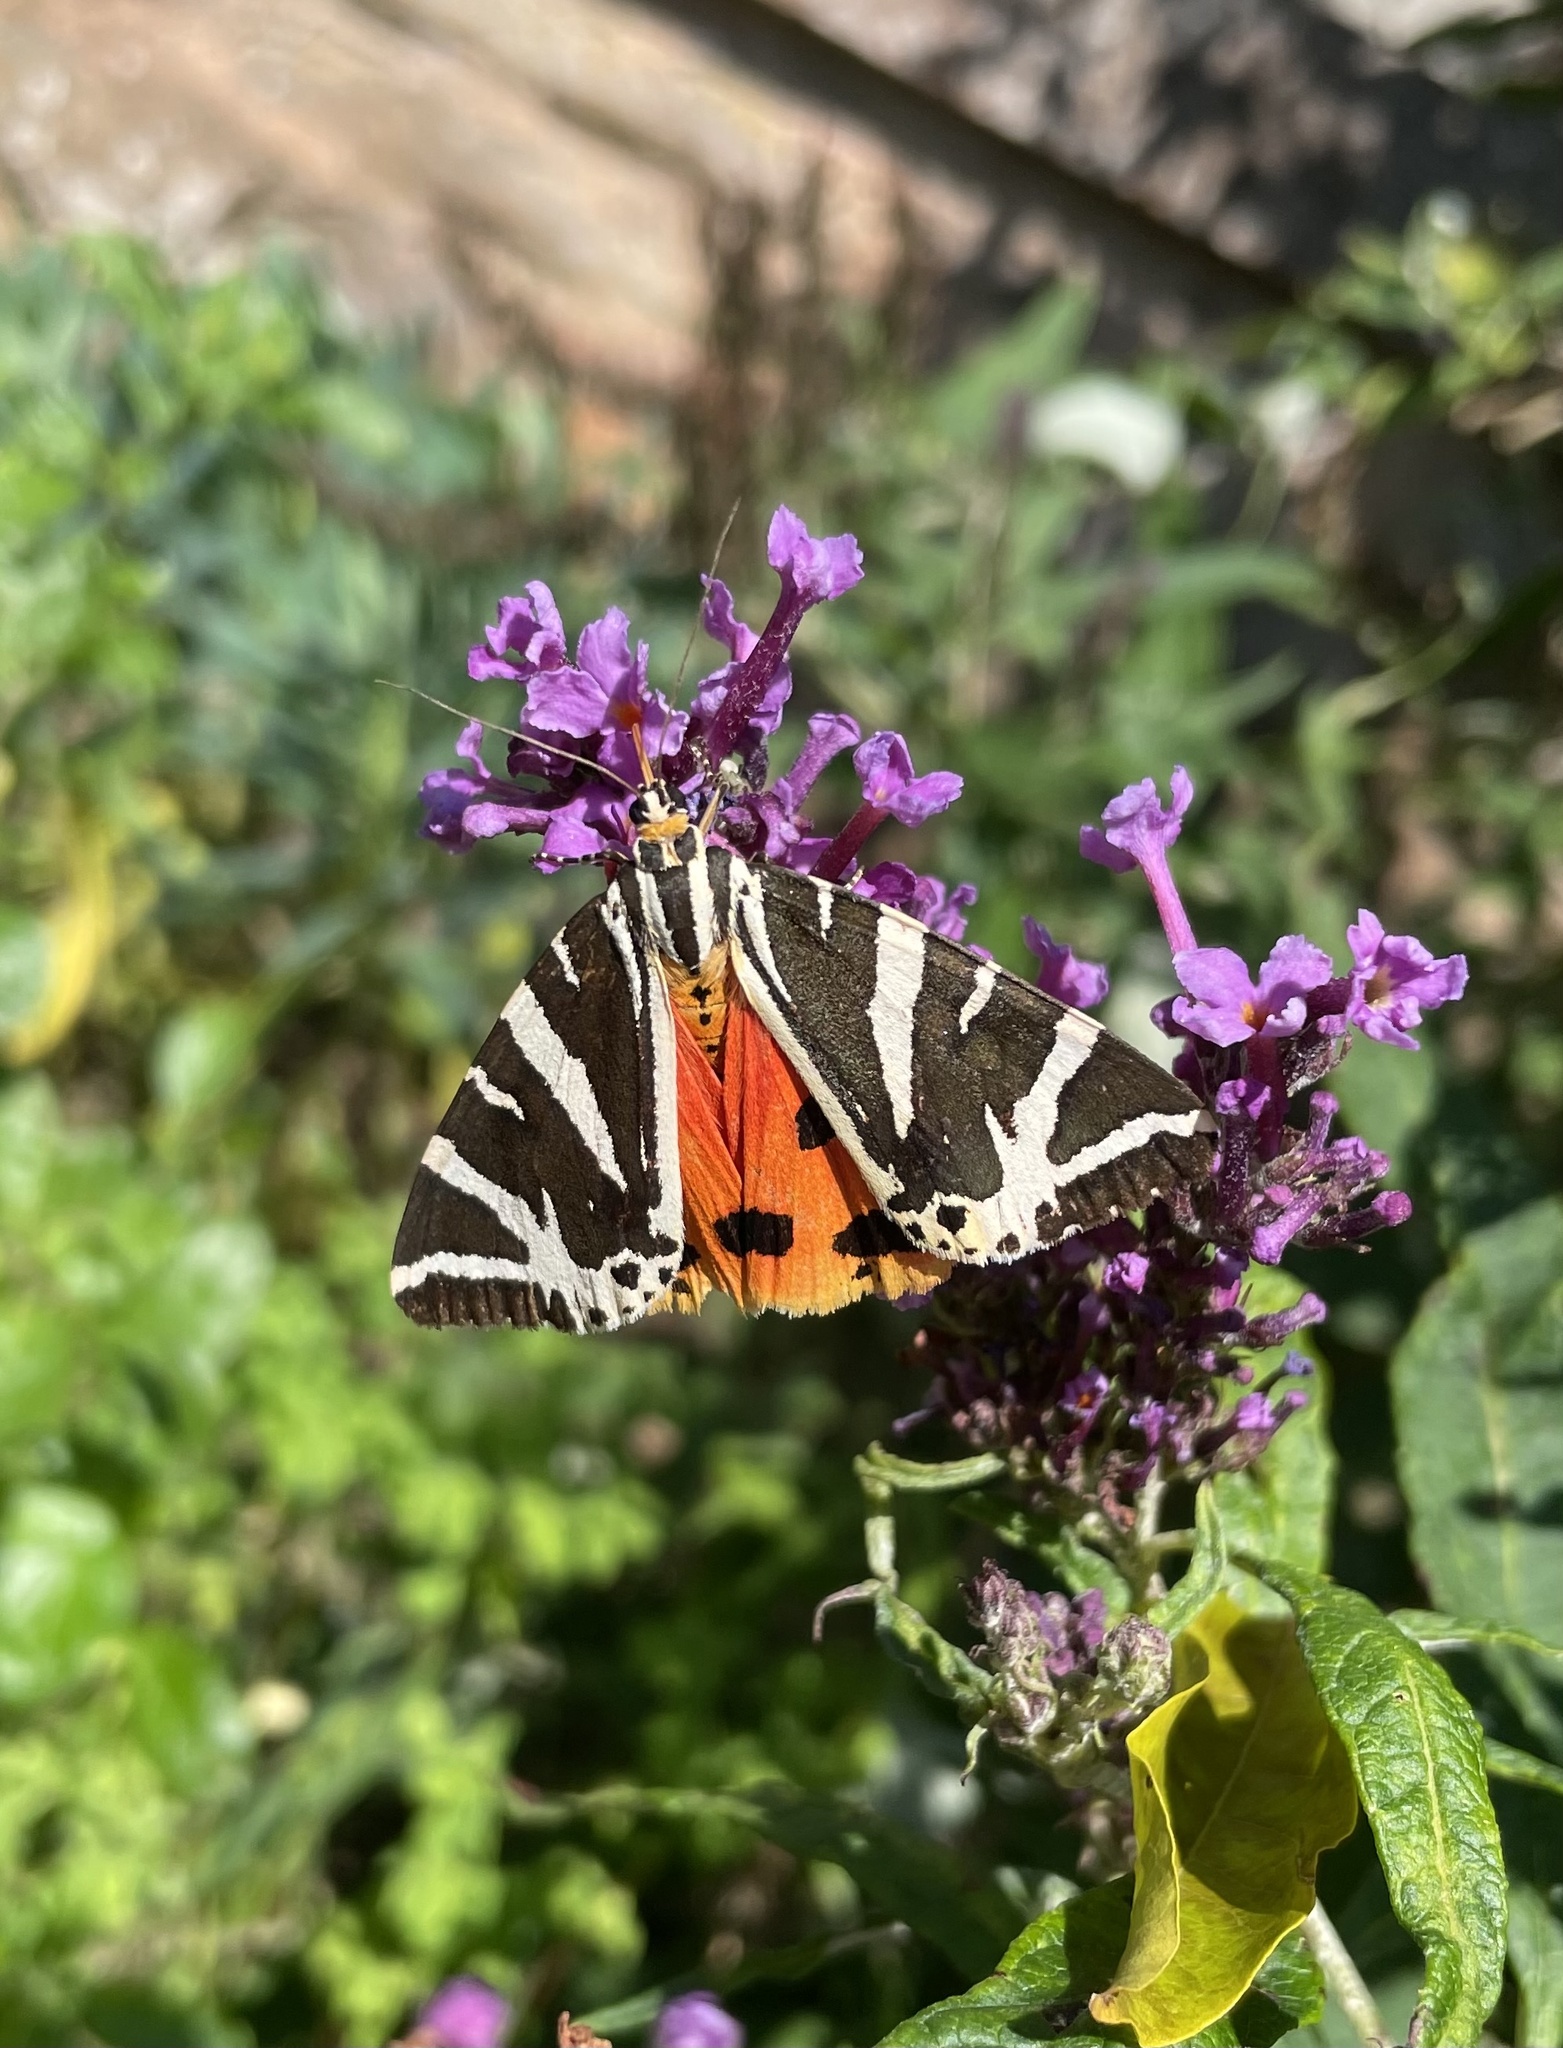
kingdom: Animalia
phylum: Arthropoda
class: Insecta
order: Lepidoptera
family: Erebidae
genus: Euplagia
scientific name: Euplagia quadripunctaria
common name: Jersey tiger
